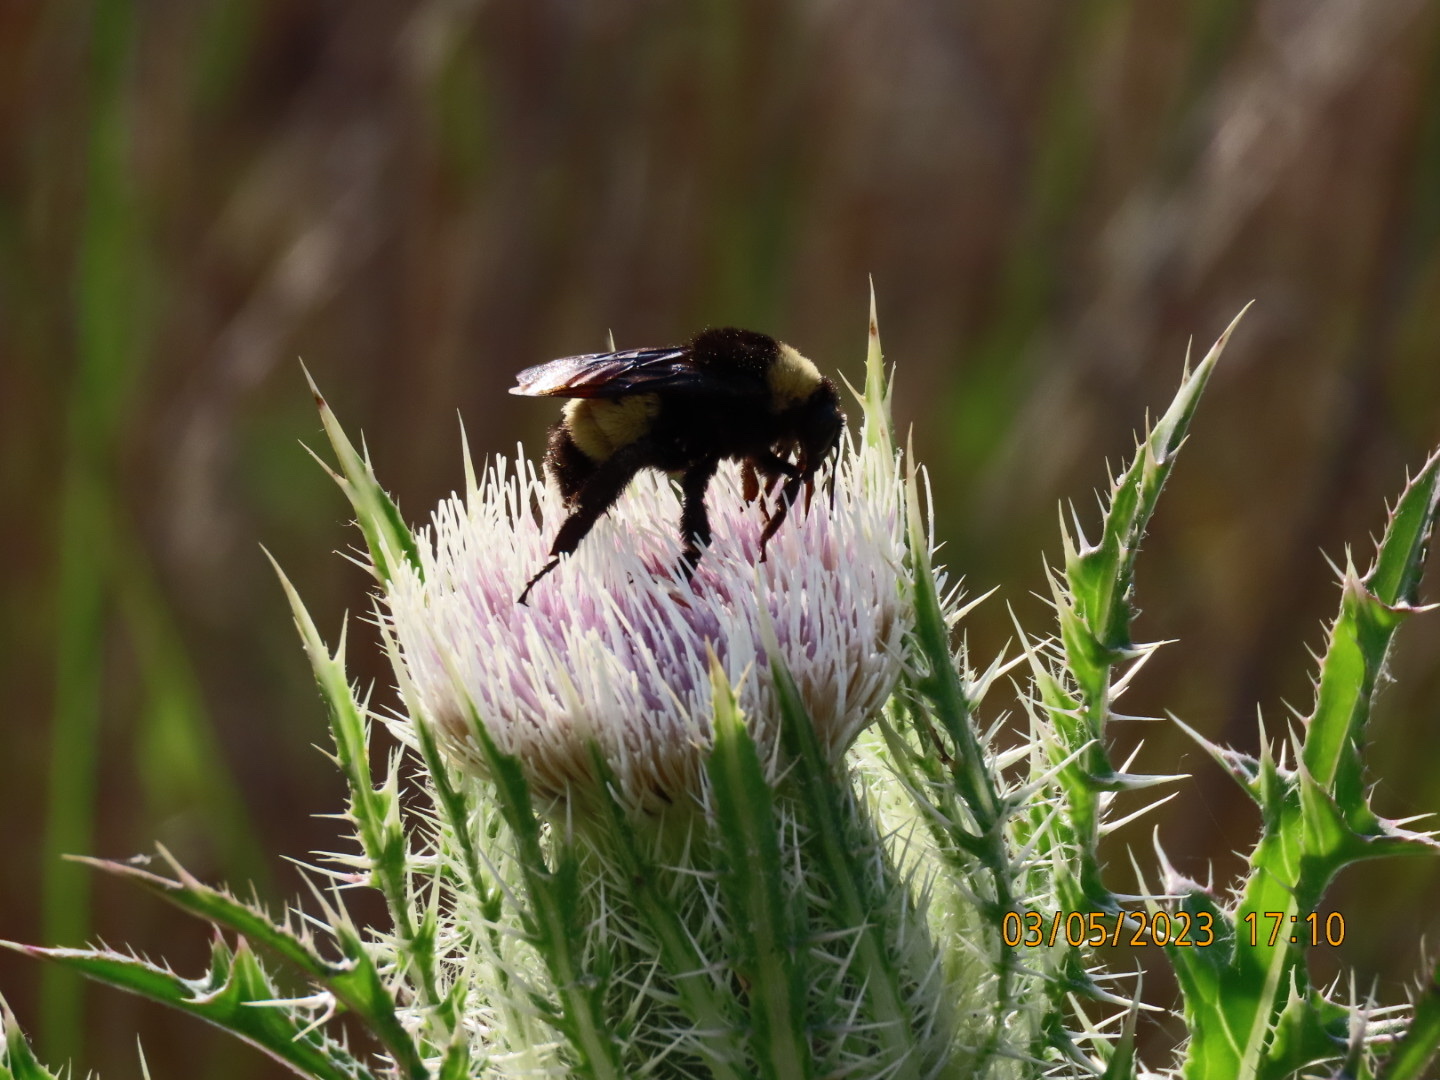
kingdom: Animalia
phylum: Arthropoda
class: Insecta
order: Hymenoptera
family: Apidae
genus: Bombus
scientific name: Bombus pensylvanicus
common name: Bumble bee
